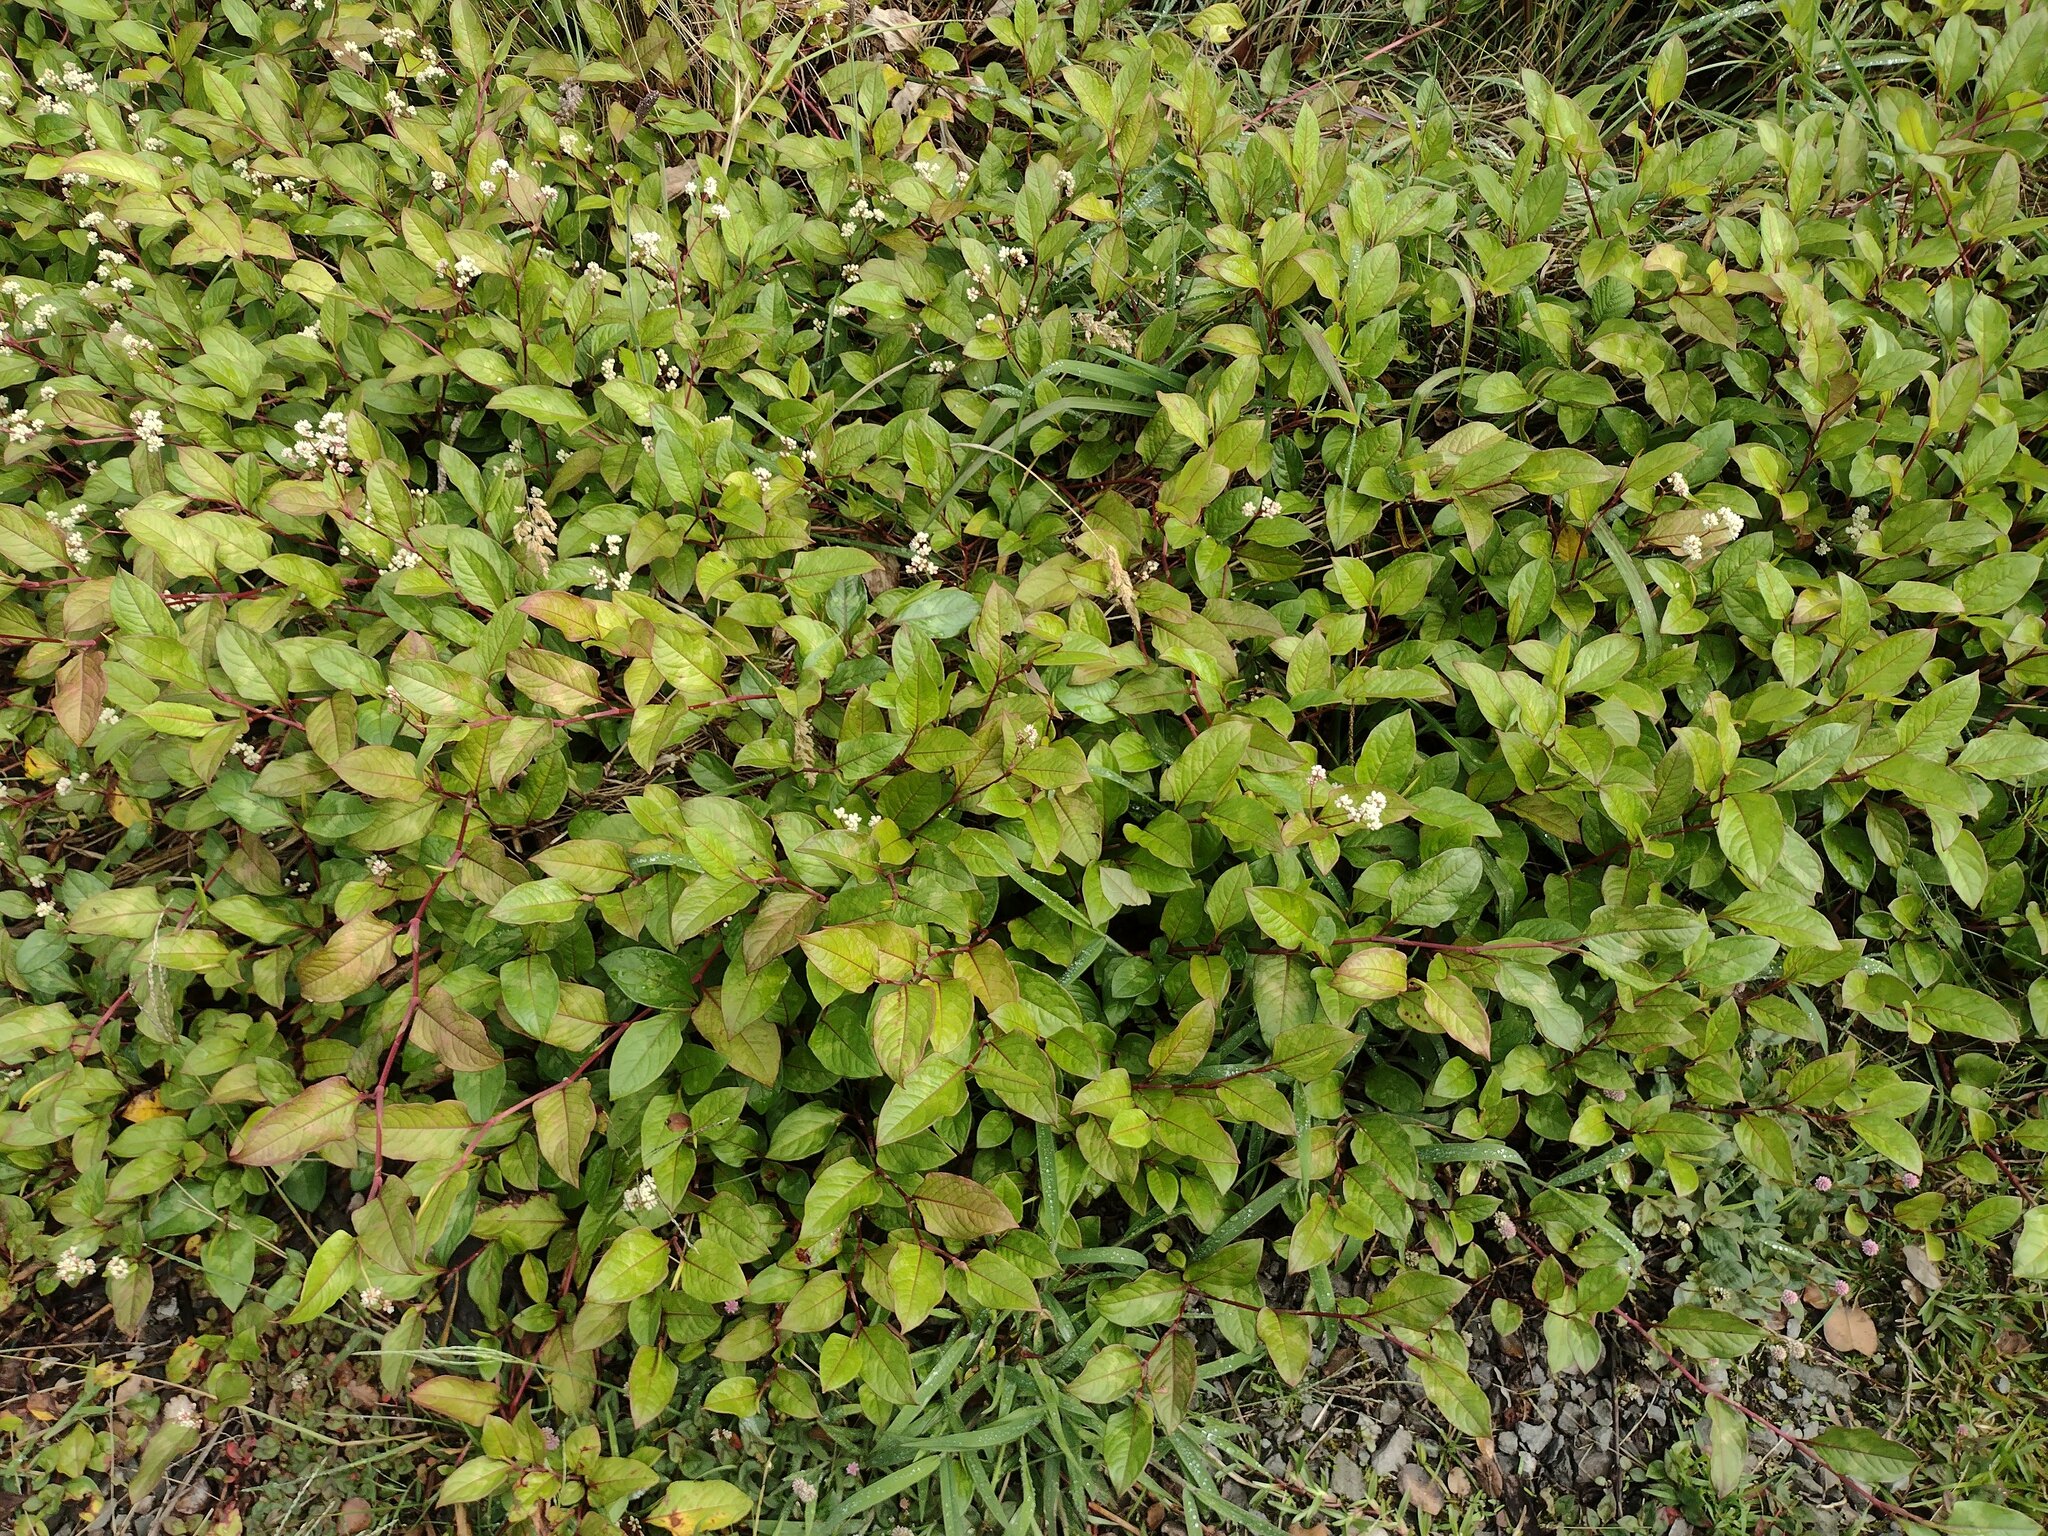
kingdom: Plantae
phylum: Tracheophyta
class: Magnoliopsida
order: Caryophyllales
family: Polygonaceae
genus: Persicaria
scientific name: Persicaria chinensis
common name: Chinese knotweed
